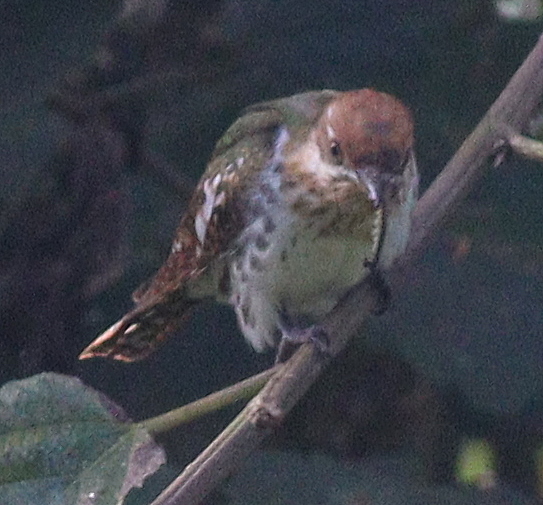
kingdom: Animalia
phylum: Chordata
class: Aves
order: Cuculiformes
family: Cuculidae
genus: Chrysococcyx
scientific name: Chrysococcyx caprius
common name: Diederik cuckoo
